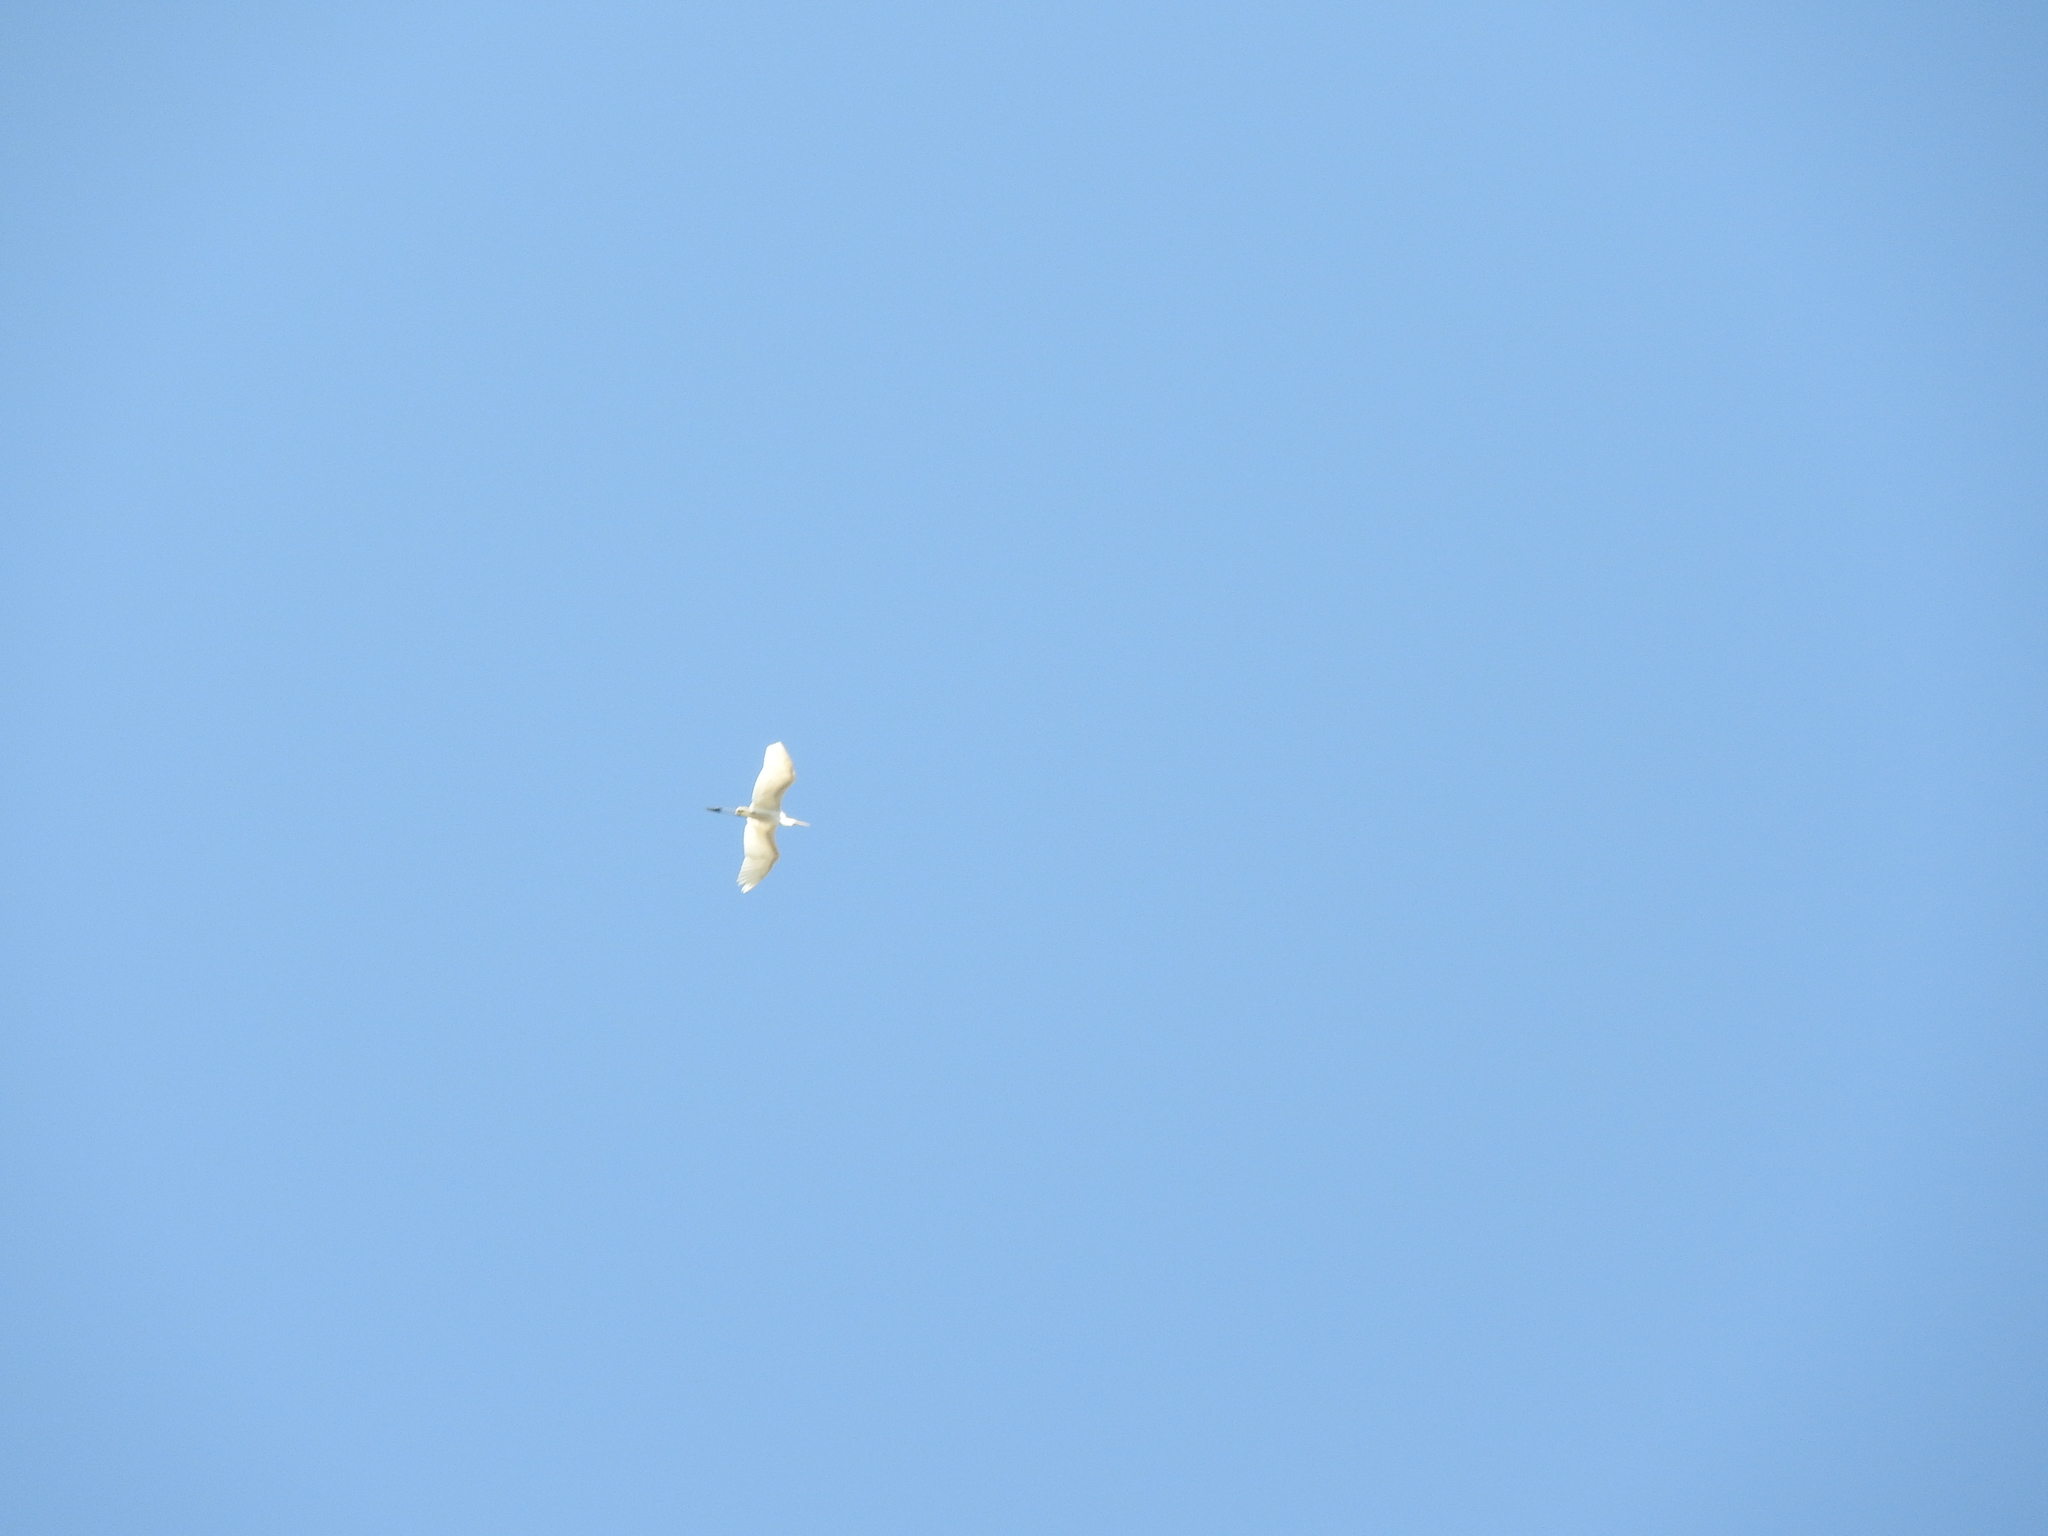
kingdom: Animalia
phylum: Chordata
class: Aves
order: Pelecaniformes
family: Ardeidae
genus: Ardea
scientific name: Ardea alba
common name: Great egret
